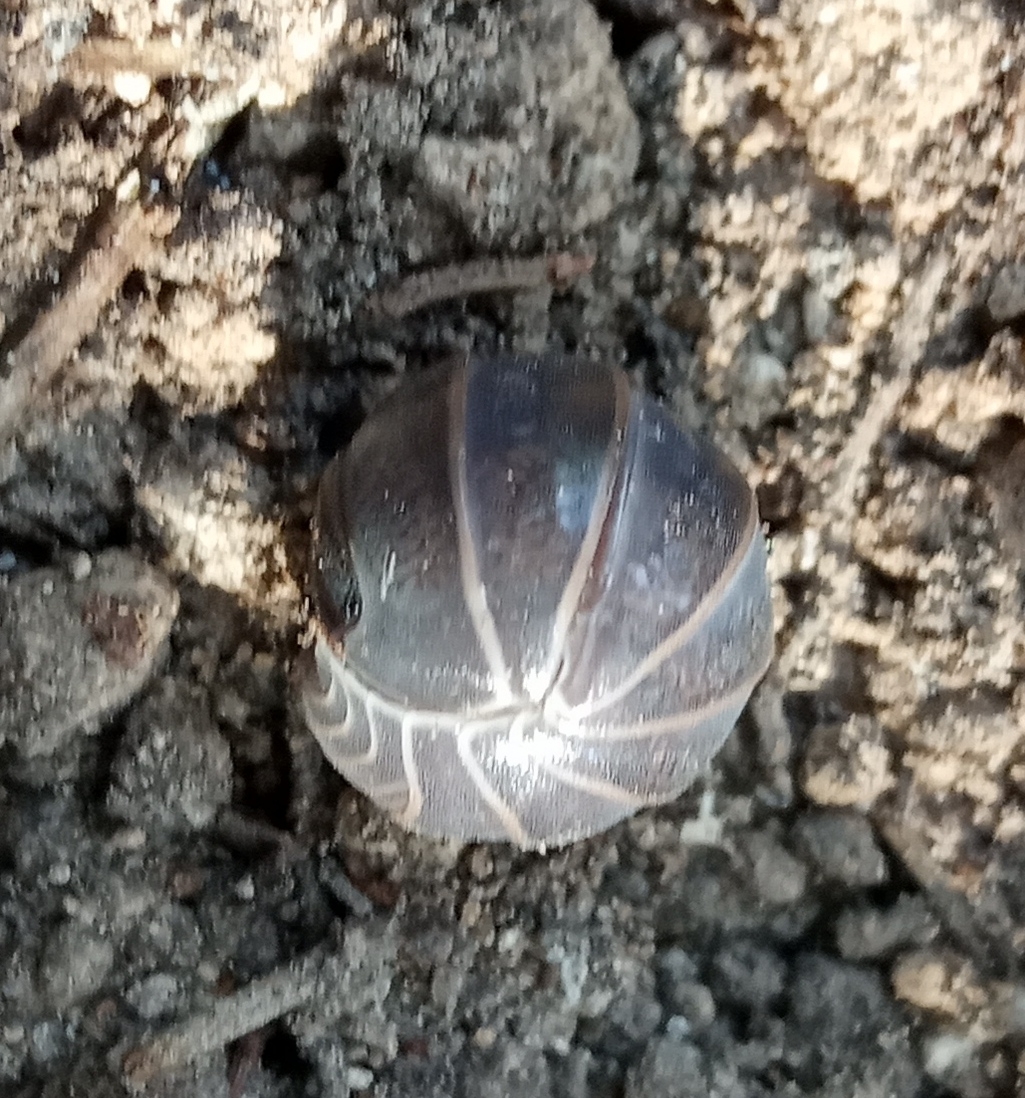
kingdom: Animalia
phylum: Arthropoda
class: Malacostraca
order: Isopoda
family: Armadillidae
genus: Armadillo
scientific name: Armadillo officinalis
